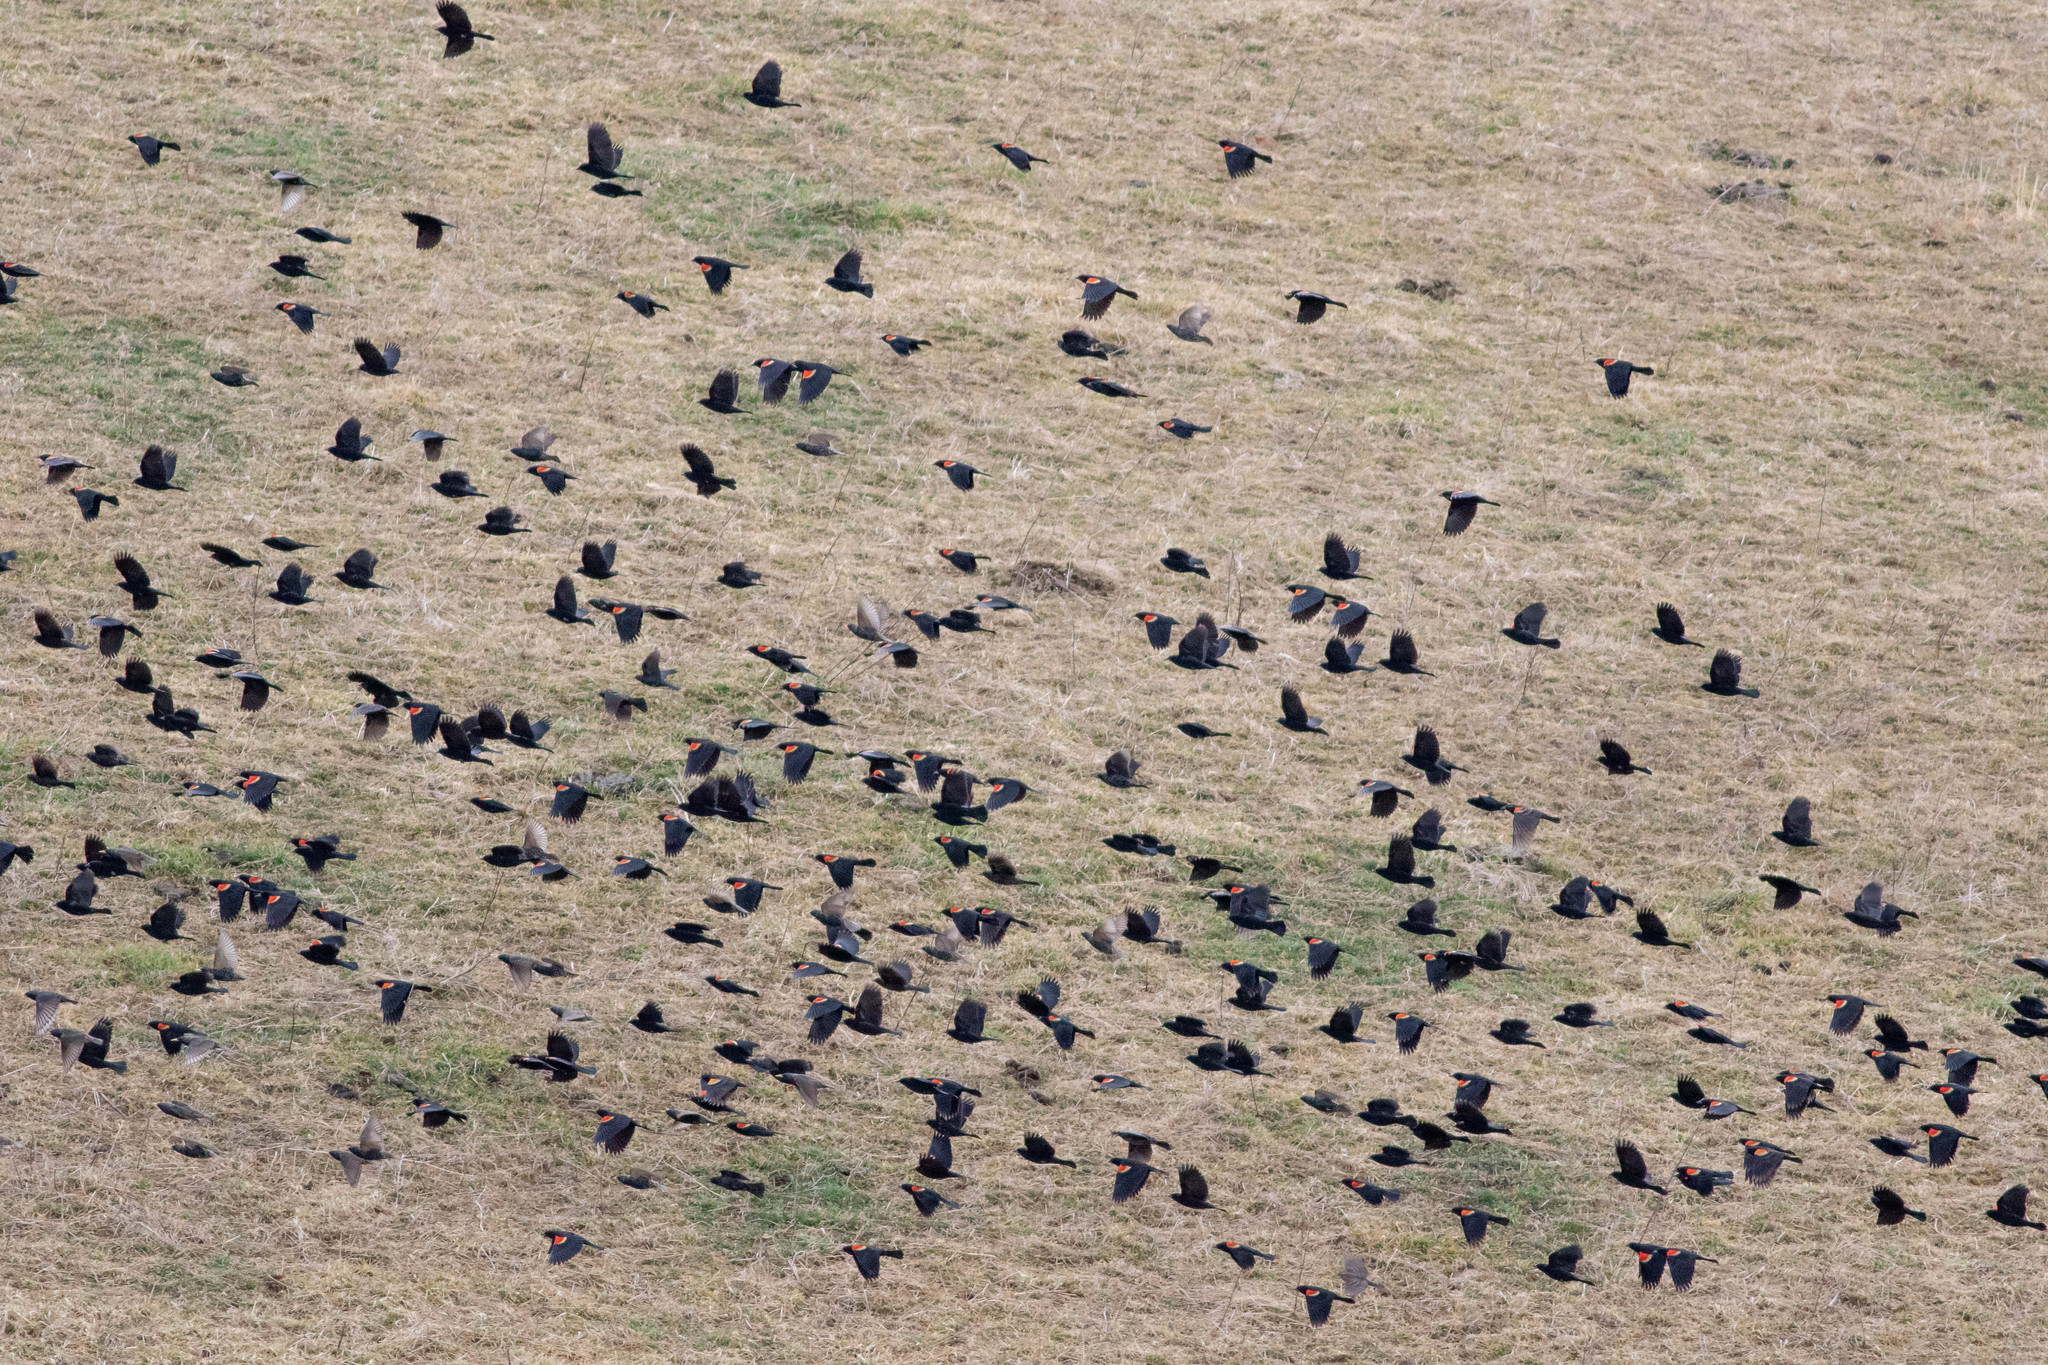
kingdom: Animalia
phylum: Chordata
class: Aves
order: Passeriformes
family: Icteridae
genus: Agelaius
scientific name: Agelaius phoeniceus
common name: Red-winged blackbird
